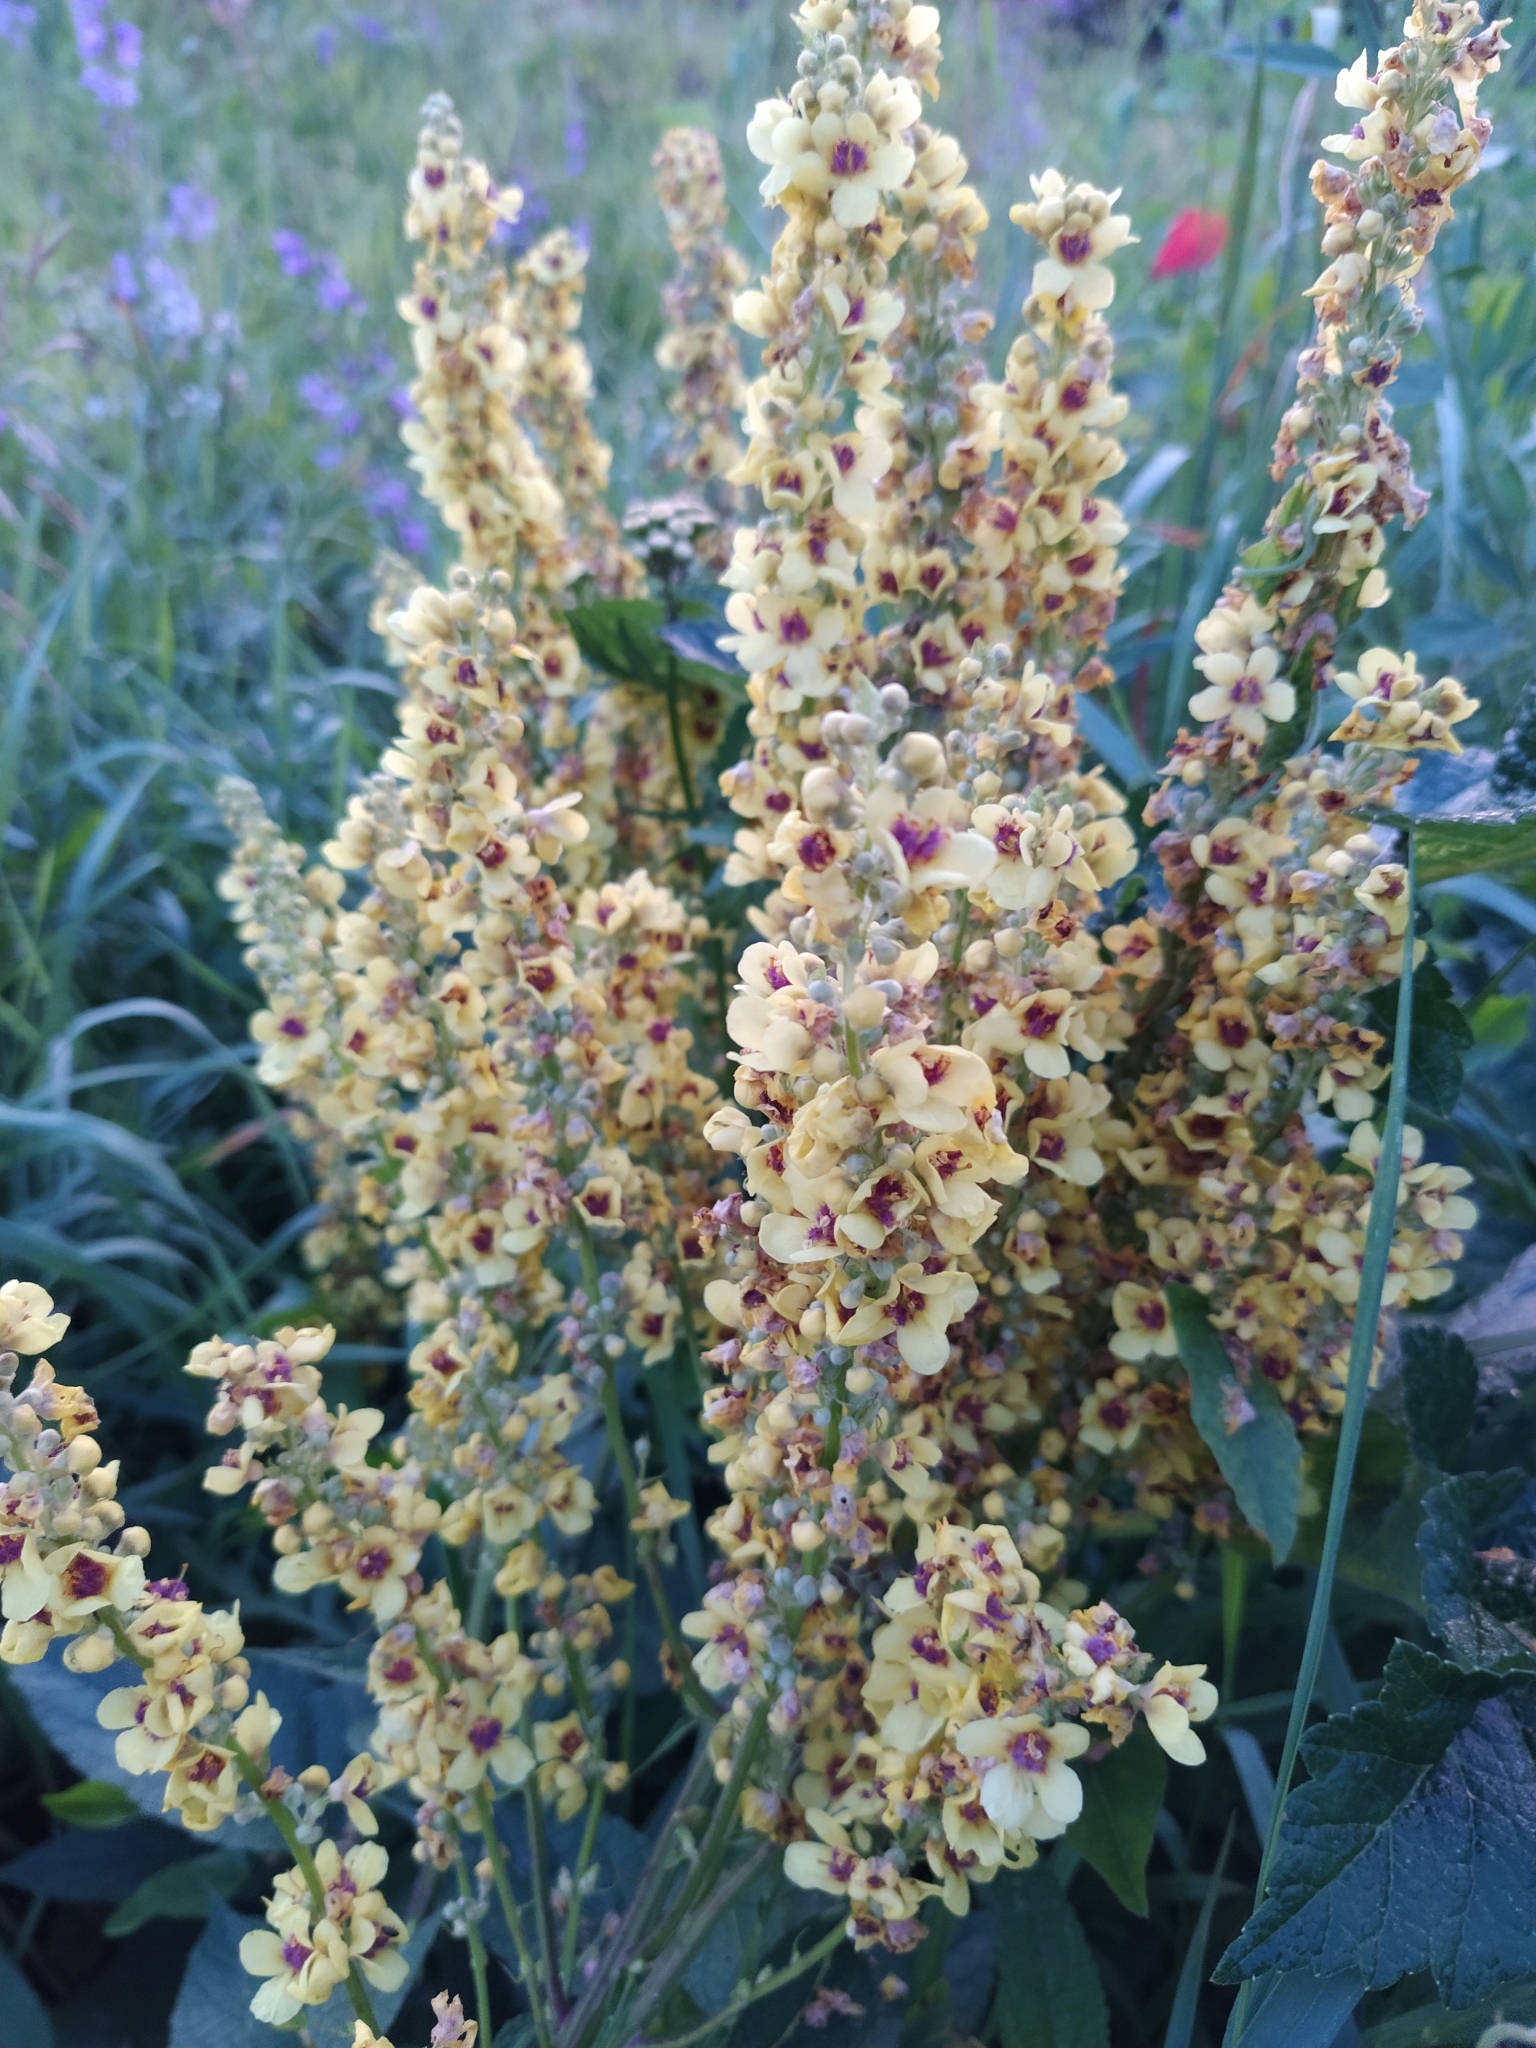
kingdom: Plantae
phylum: Tracheophyta
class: Magnoliopsida
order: Lamiales
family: Scrophulariaceae
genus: Verbascum
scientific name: Verbascum nigrum
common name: Dark mullein
